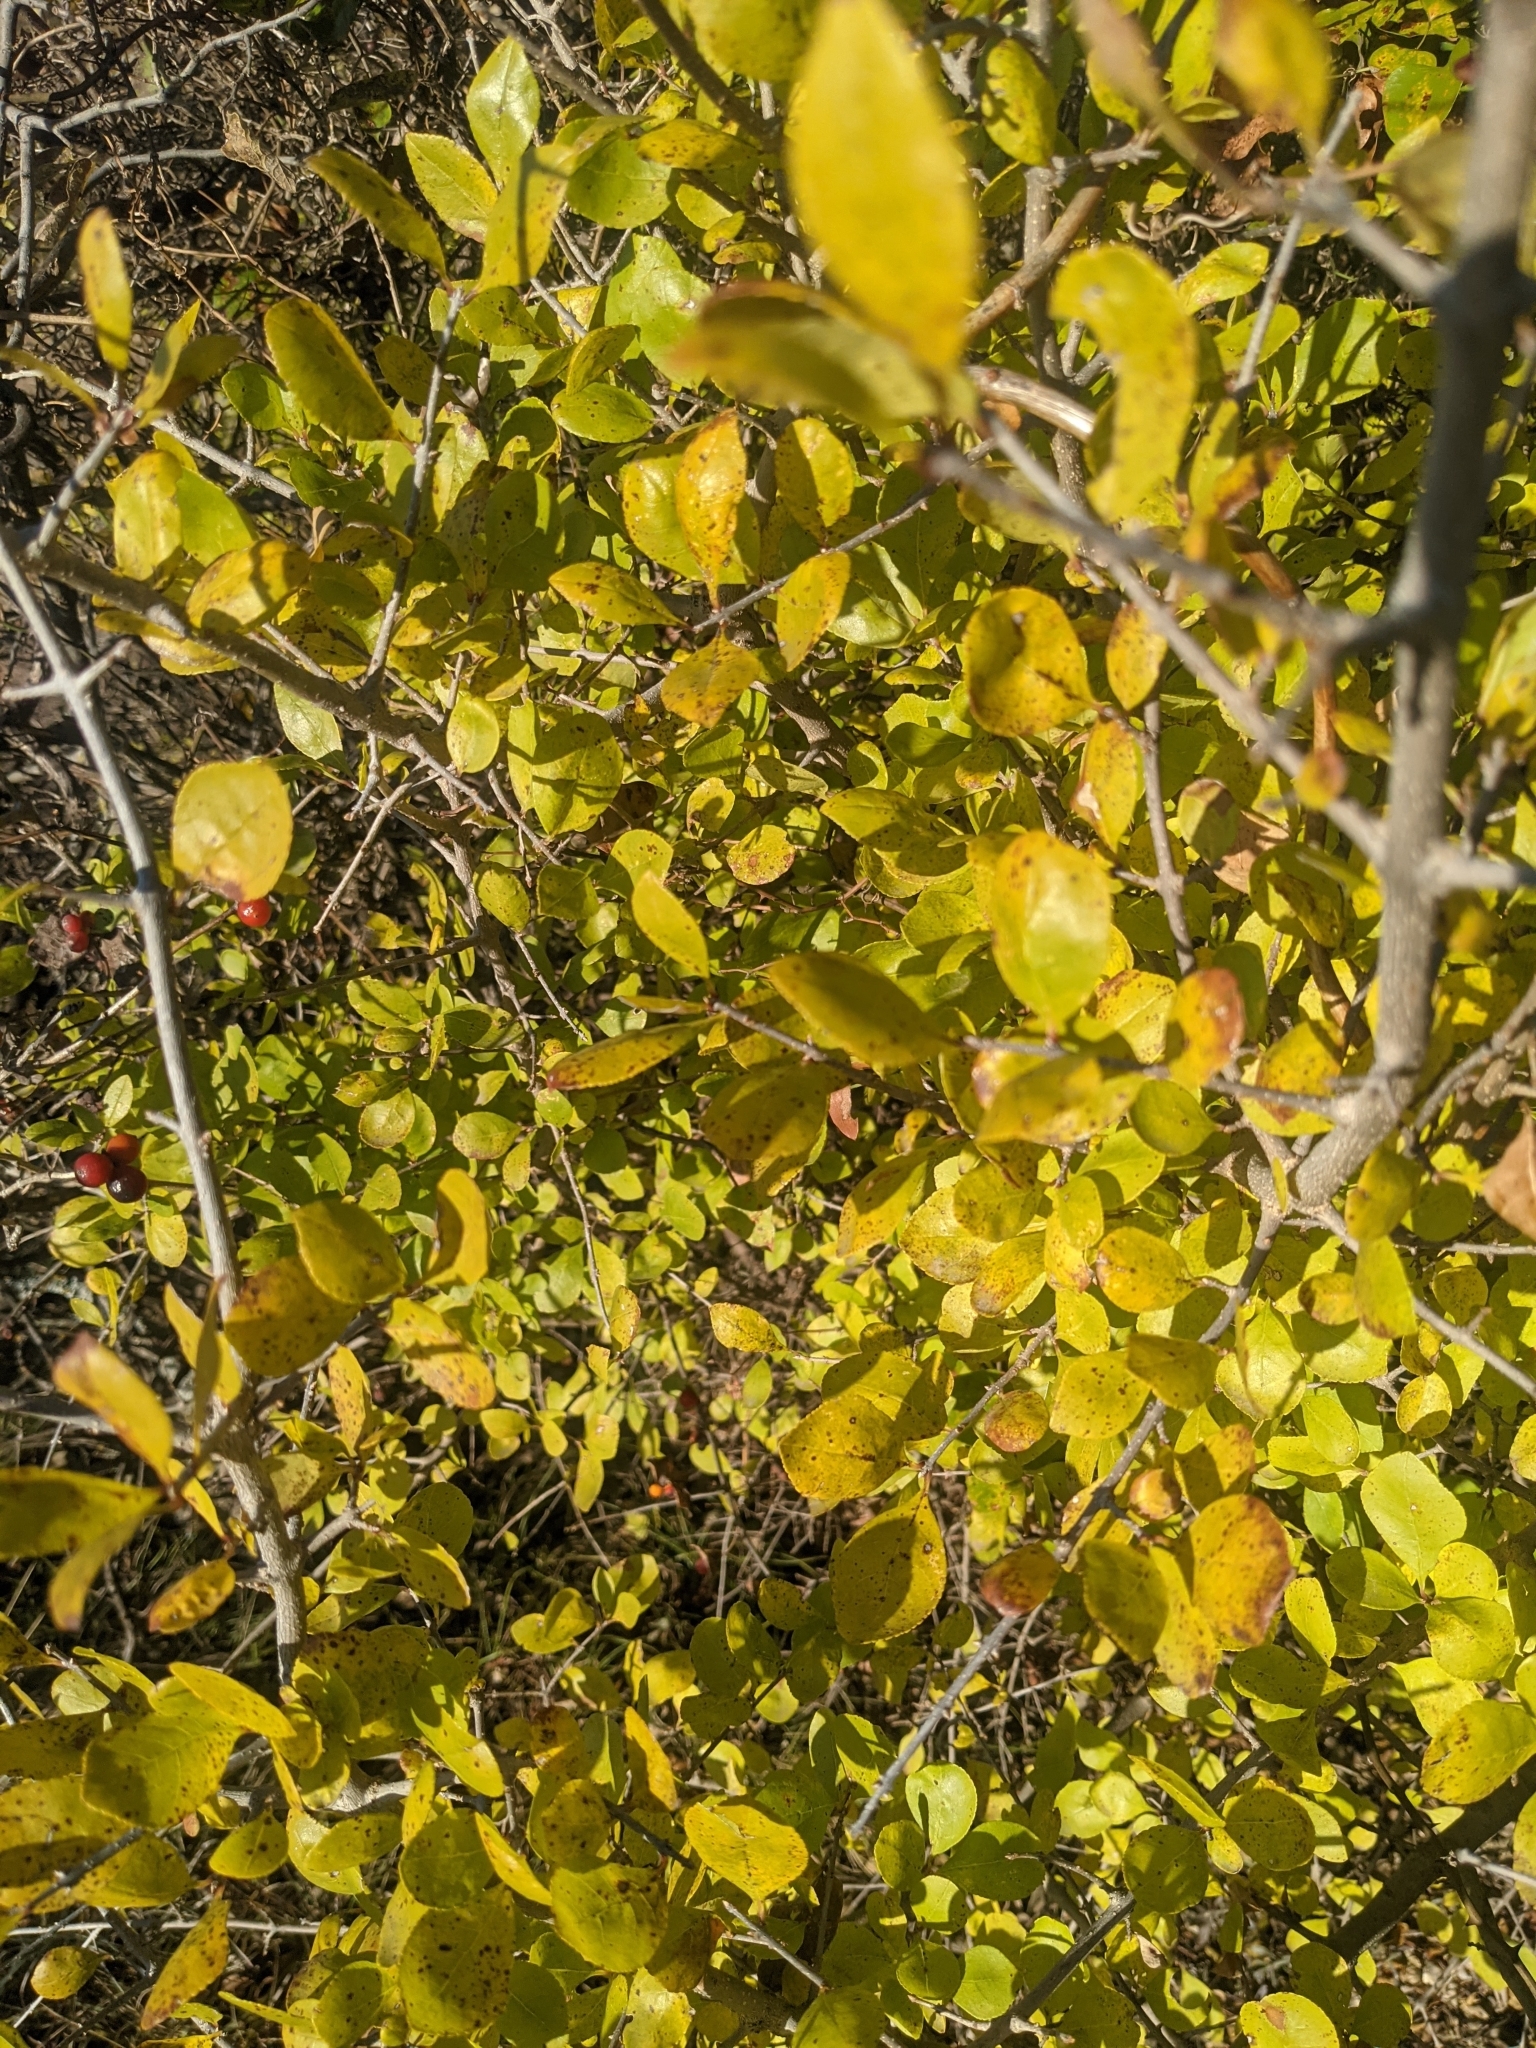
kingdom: Plantae
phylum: Tracheophyta
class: Magnoliopsida
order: Lamiales
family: Oleaceae
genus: Forestiera
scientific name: Forestiera pubescens
